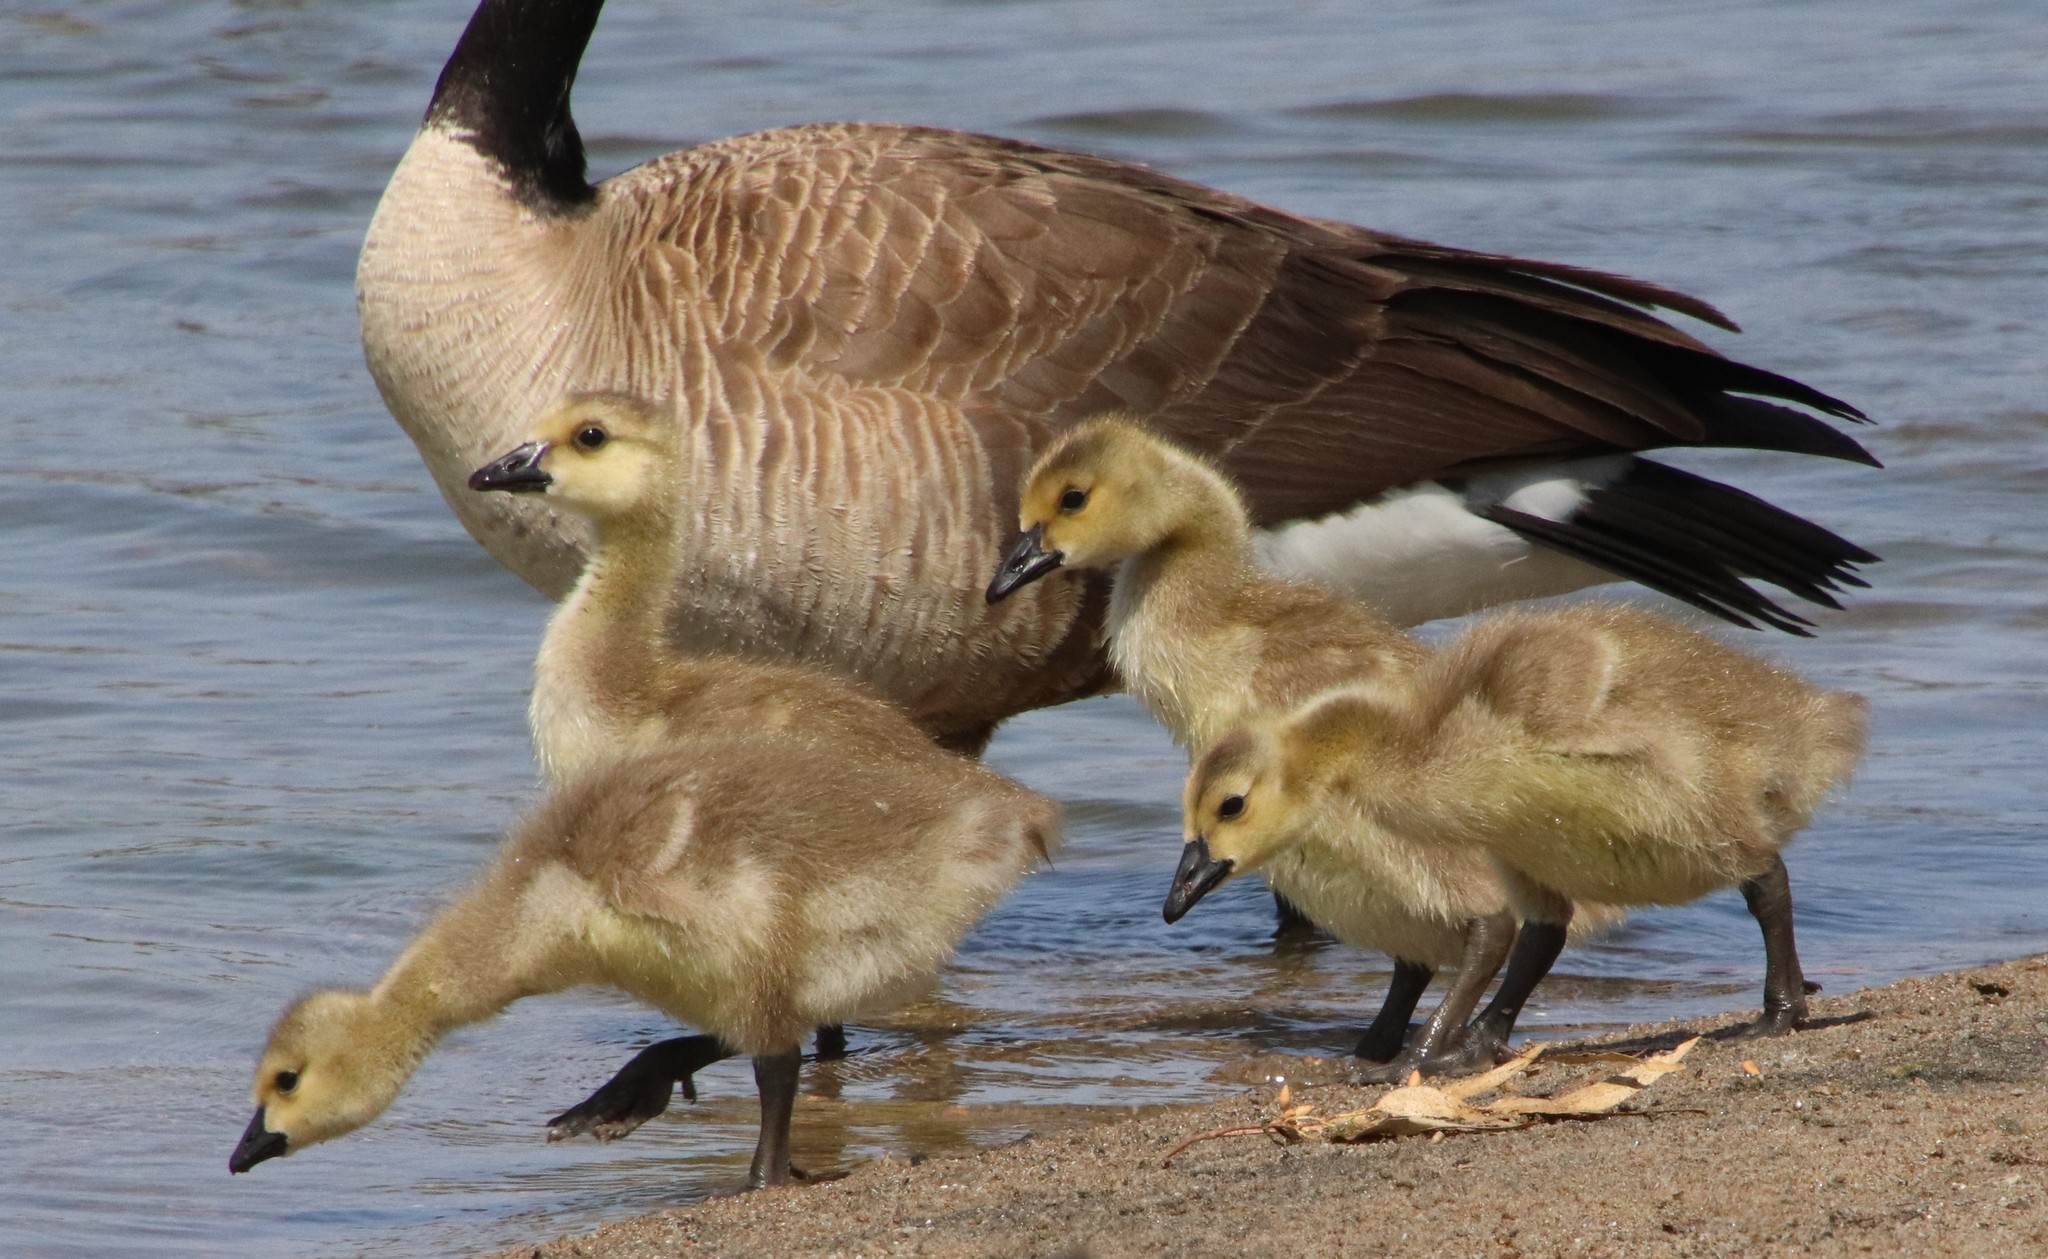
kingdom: Animalia
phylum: Chordata
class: Aves
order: Anseriformes
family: Anatidae
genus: Branta
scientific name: Branta canadensis
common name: Canada goose
